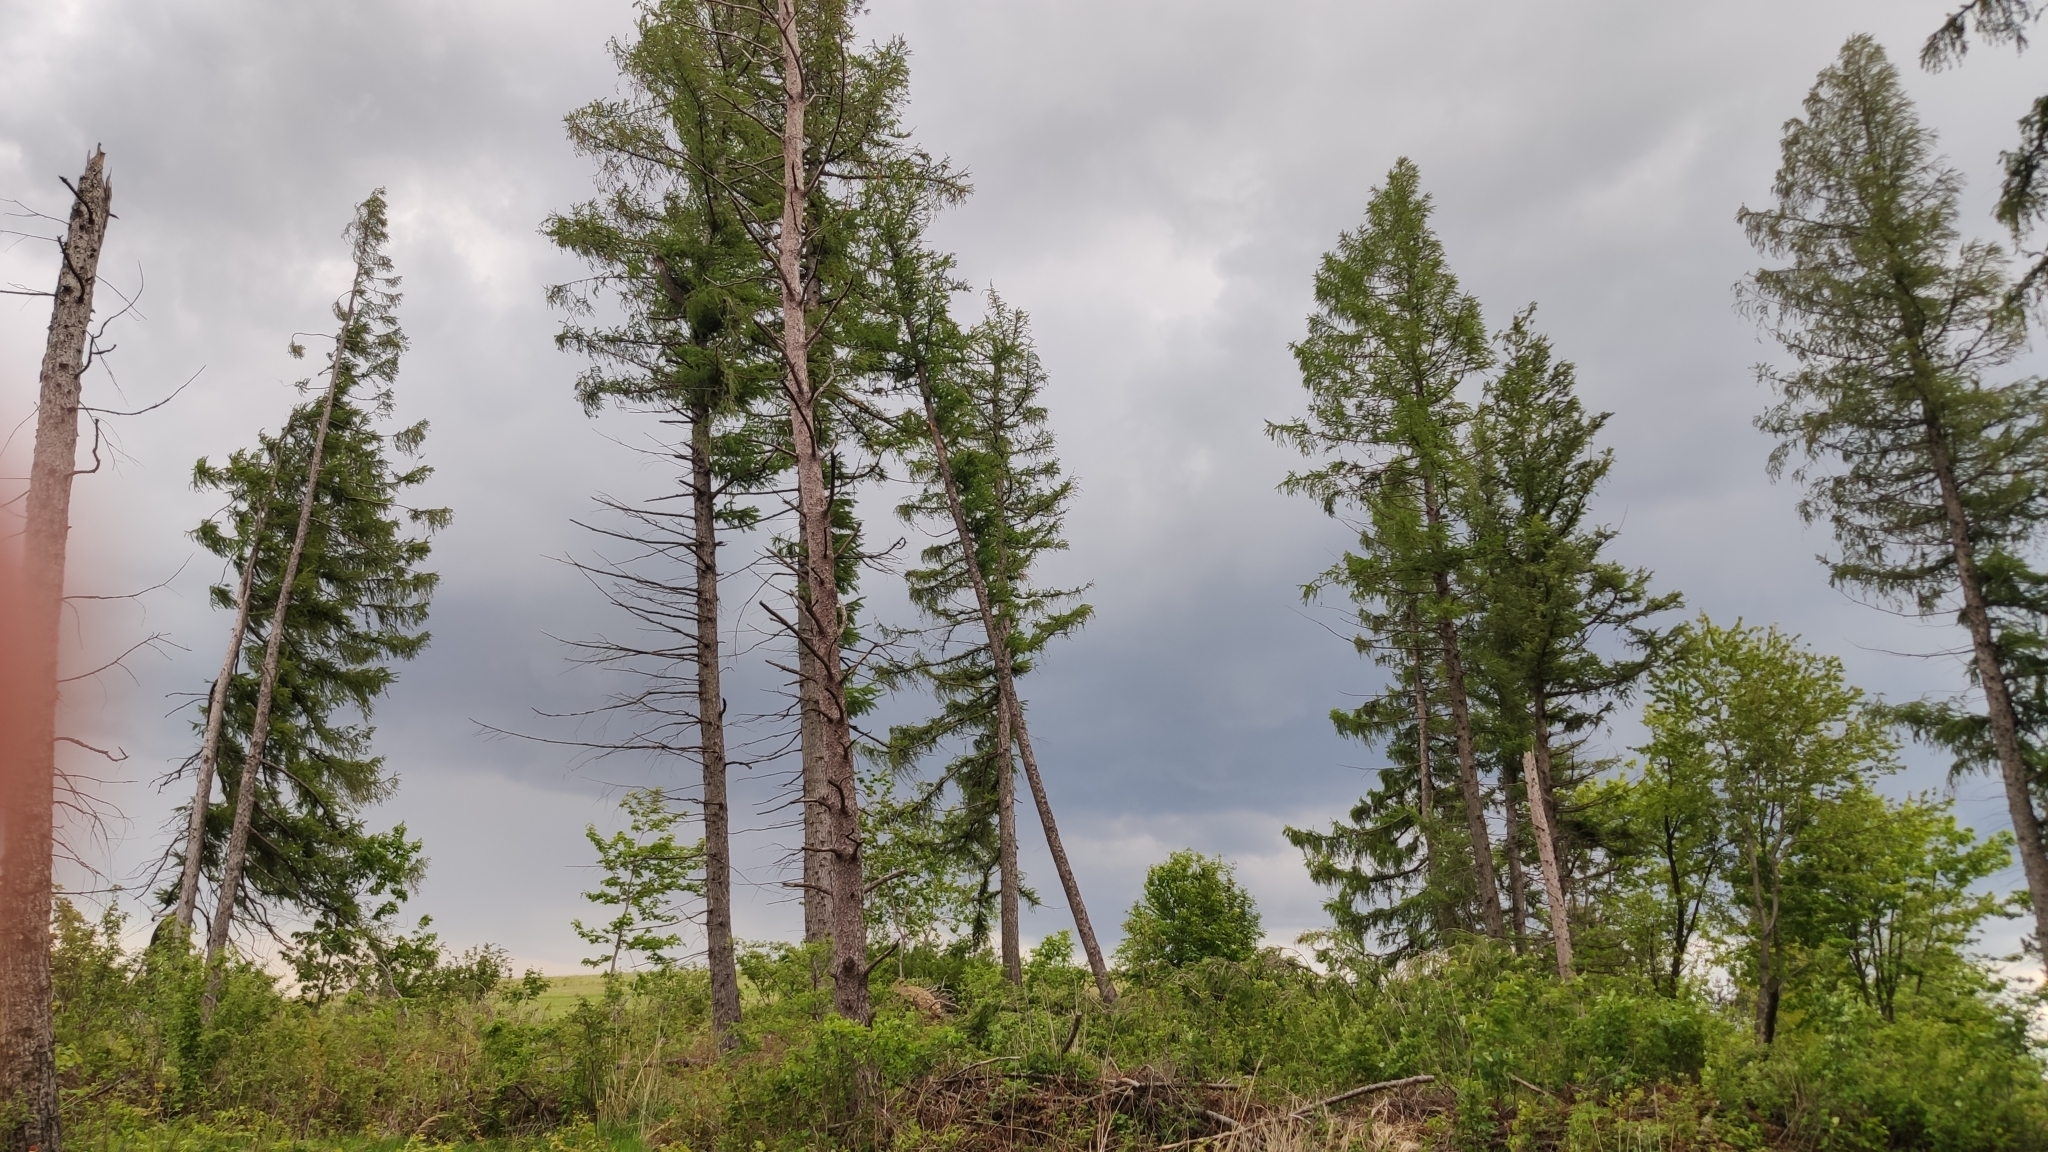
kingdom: Plantae
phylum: Tracheophyta
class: Pinopsida
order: Pinales
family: Pinaceae
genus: Larix
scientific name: Larix decidua
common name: European larch
